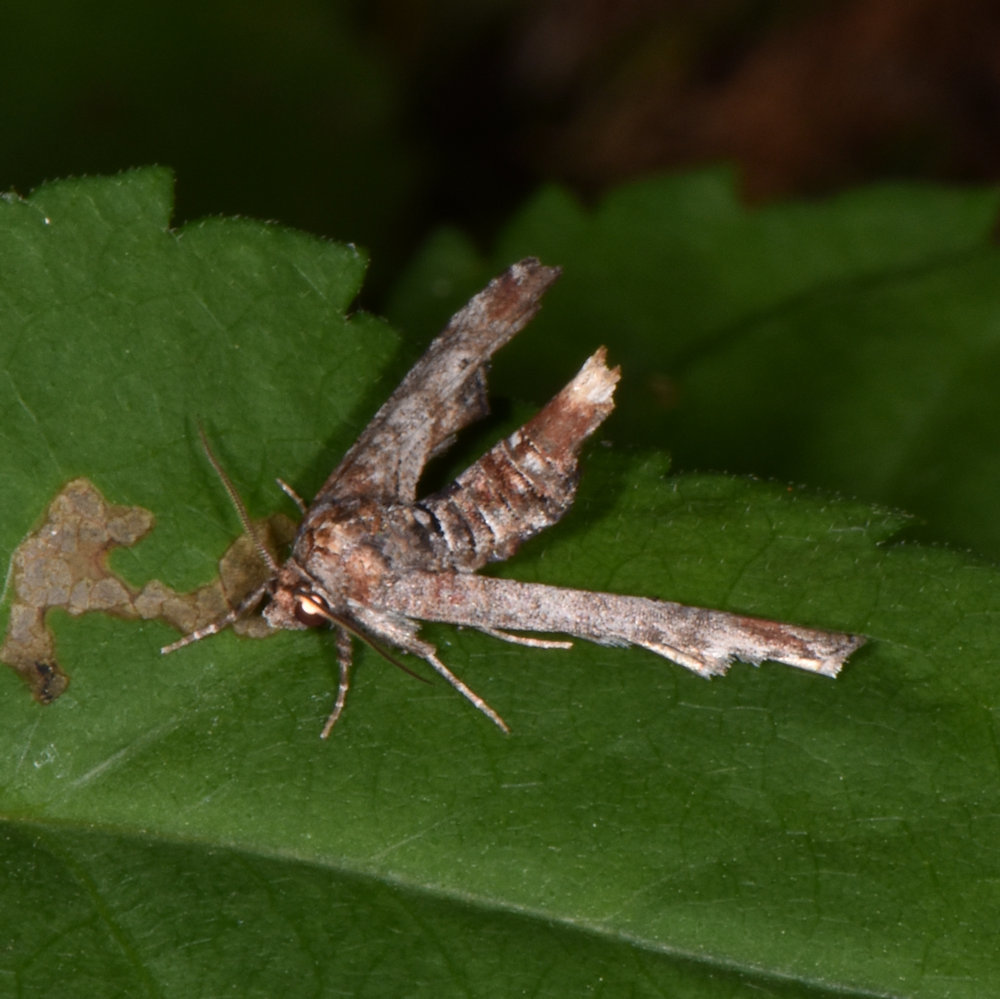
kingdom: Animalia
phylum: Arthropoda
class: Insecta
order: Lepidoptera
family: Euteliidae
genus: Marathyssa
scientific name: Marathyssa inficita
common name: Dark marathyssa moth
